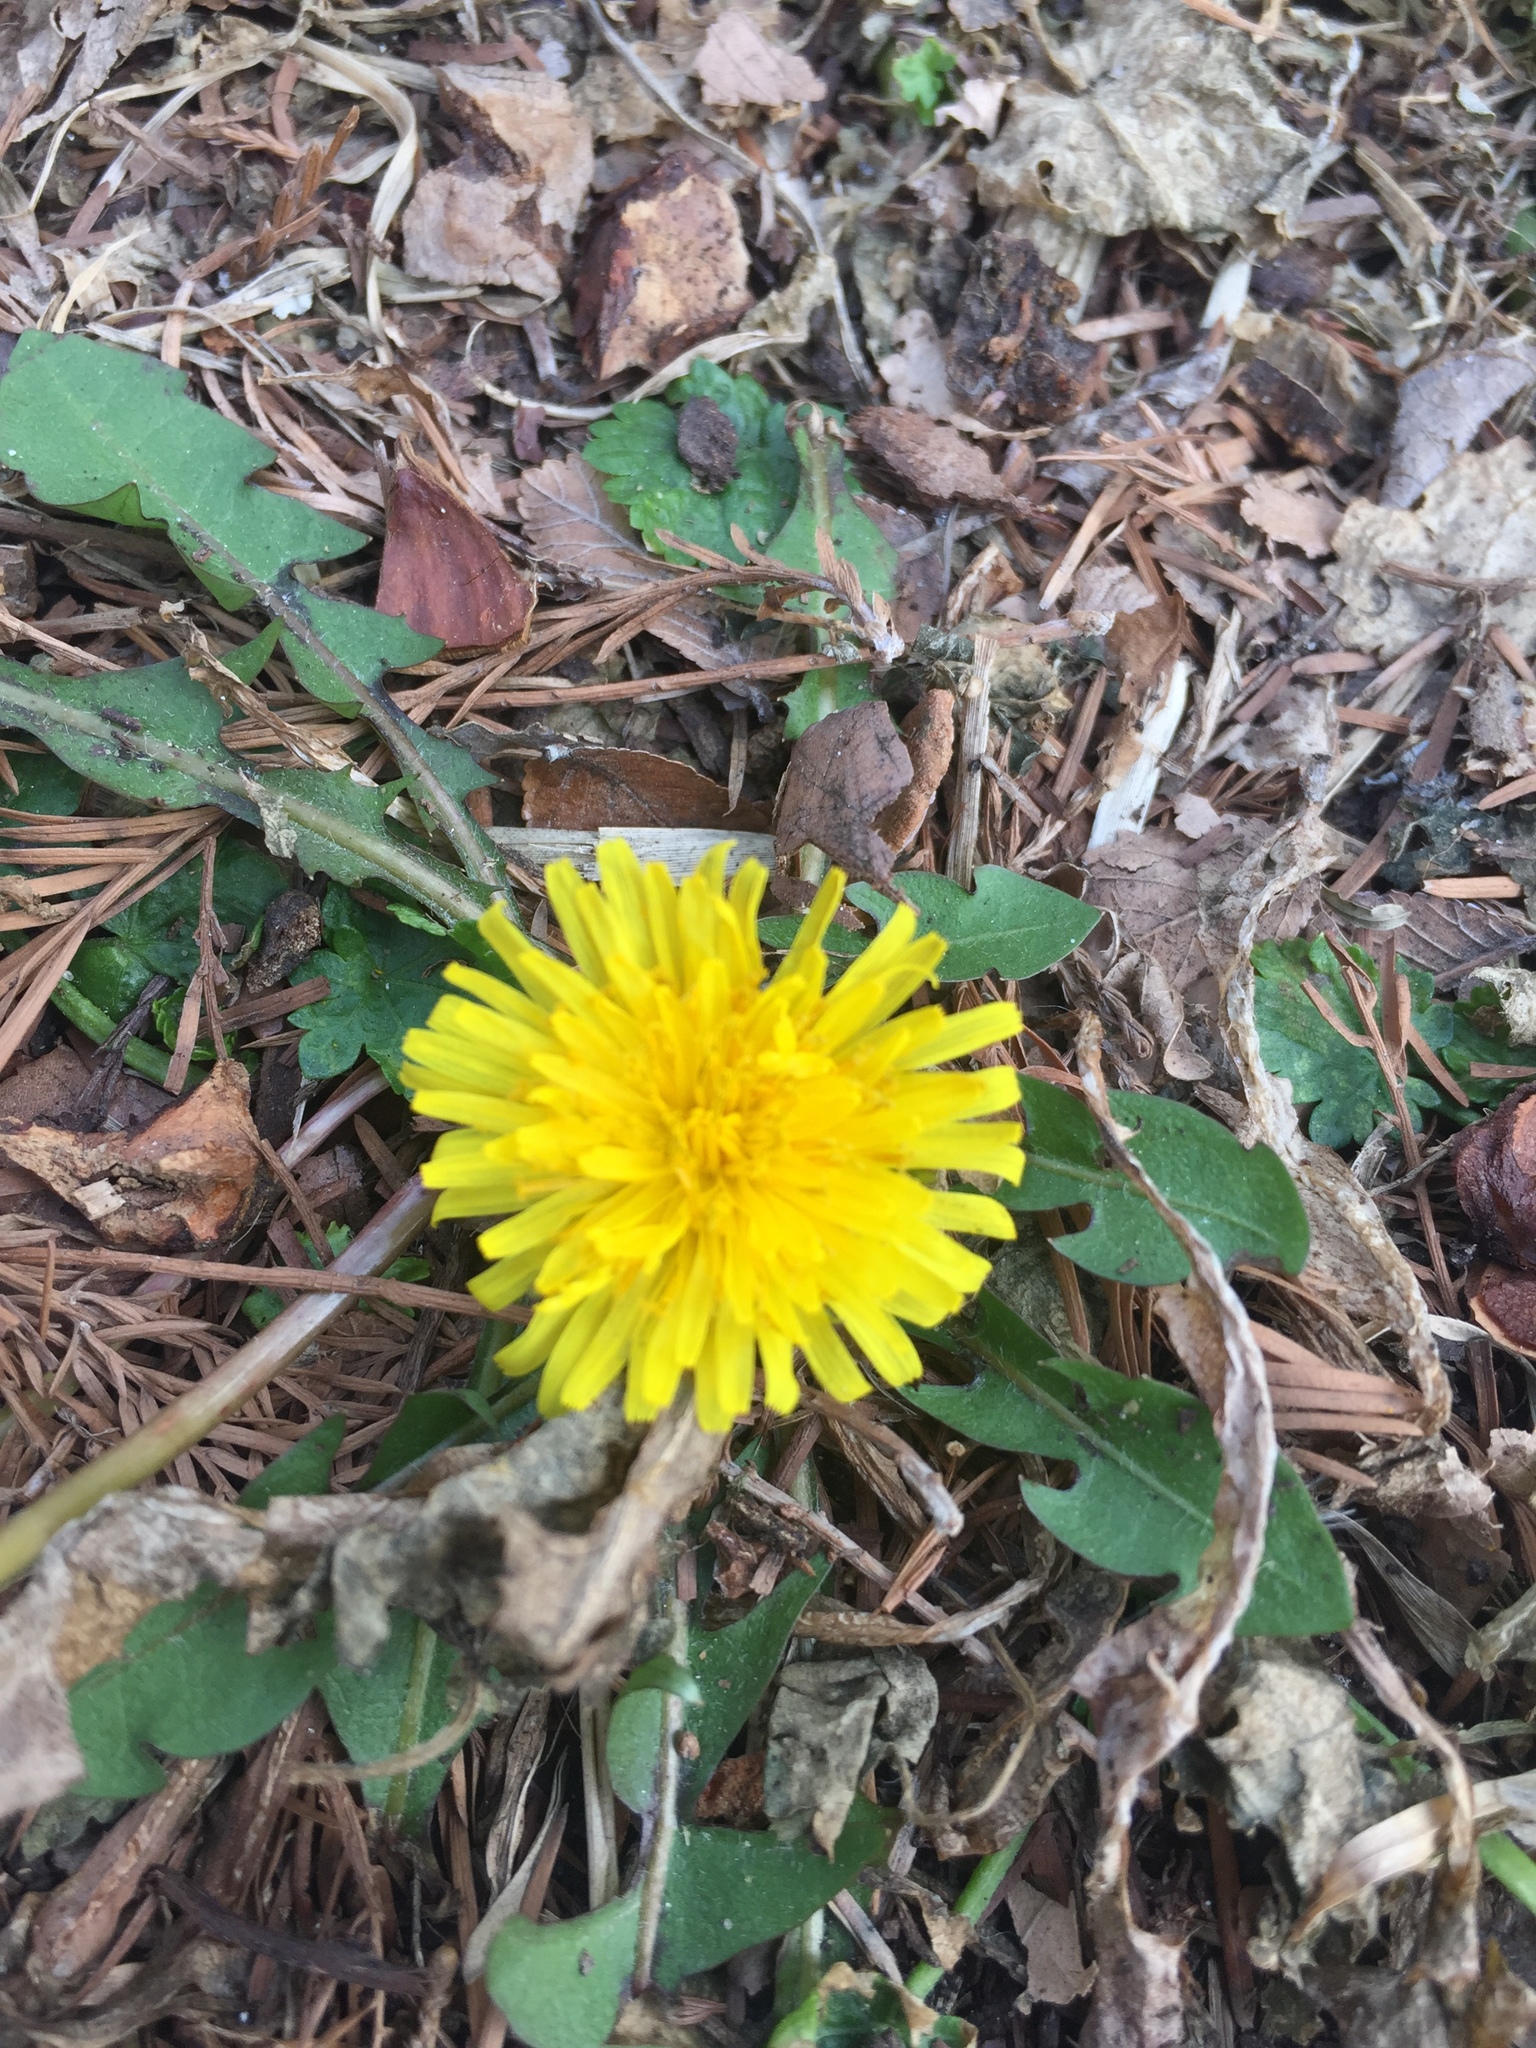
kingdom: Plantae
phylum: Tracheophyta
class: Magnoliopsida
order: Asterales
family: Asteraceae
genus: Taraxacum
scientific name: Taraxacum officinale
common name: Common dandelion
